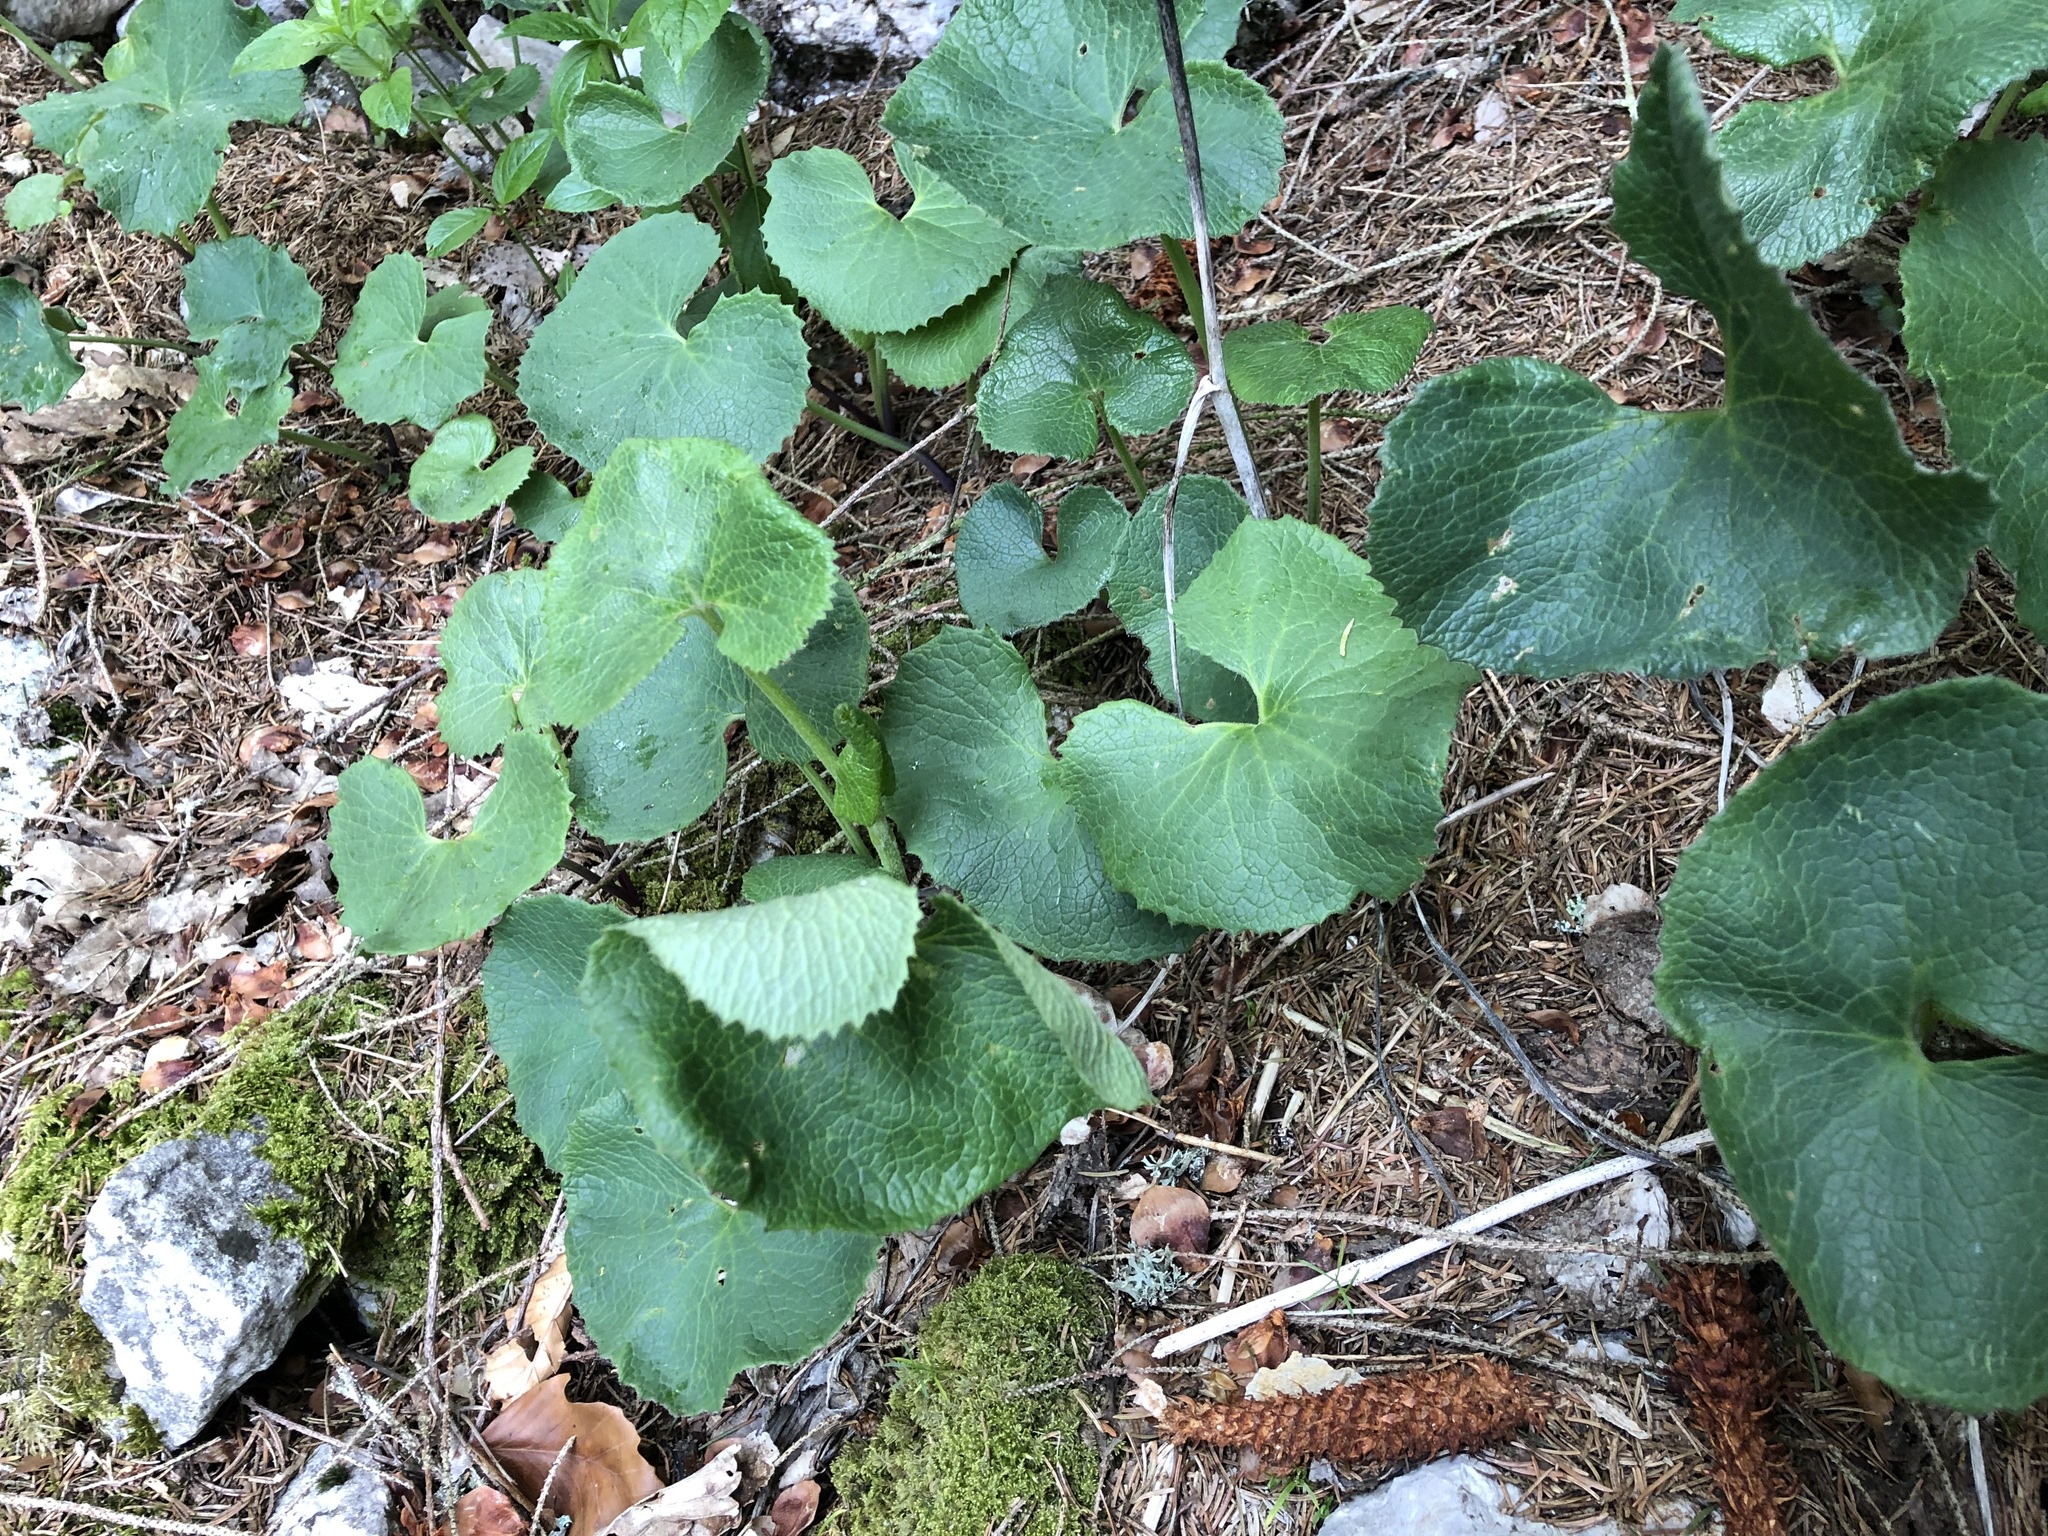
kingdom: Plantae
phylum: Tracheophyta
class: Magnoliopsida
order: Asterales
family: Asteraceae
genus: Adenostyles
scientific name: Adenostyles alpina
